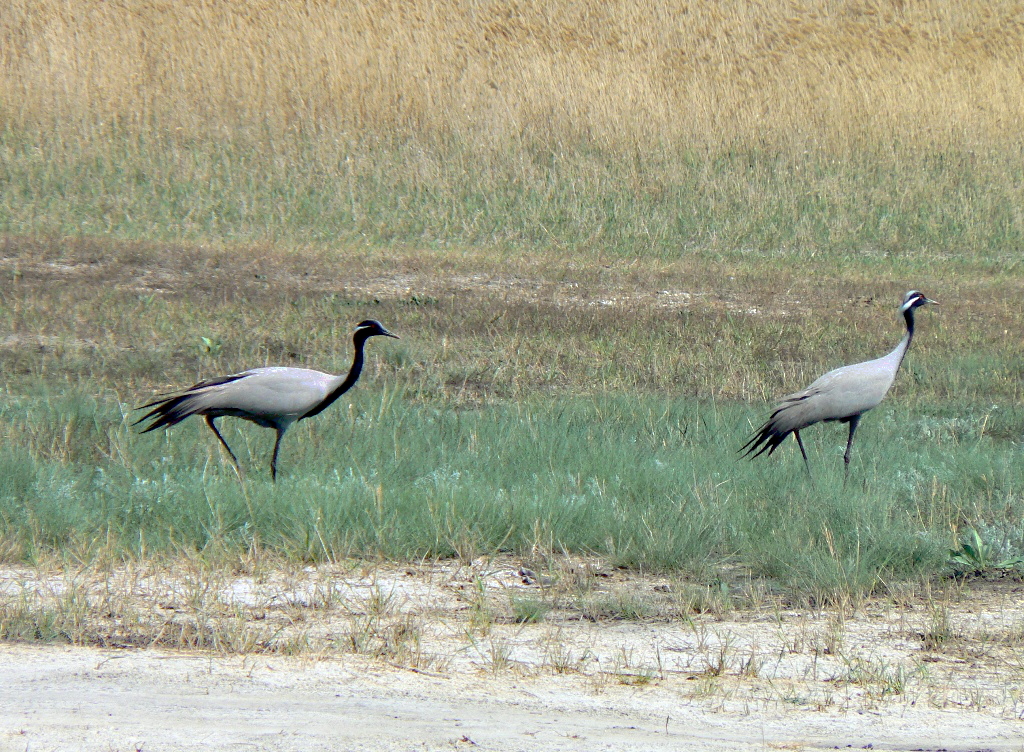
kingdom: Animalia
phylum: Chordata
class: Aves
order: Gruiformes
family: Gruidae
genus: Anthropoides
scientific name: Anthropoides virgo
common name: Demoiselle crane
